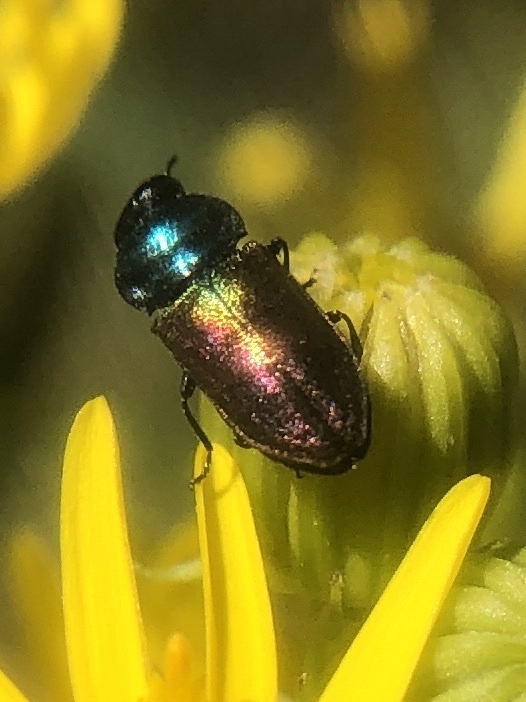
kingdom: Animalia
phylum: Arthropoda
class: Insecta
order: Coleoptera
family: Buprestidae
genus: Anthaxia
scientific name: Anthaxia thalassophila
